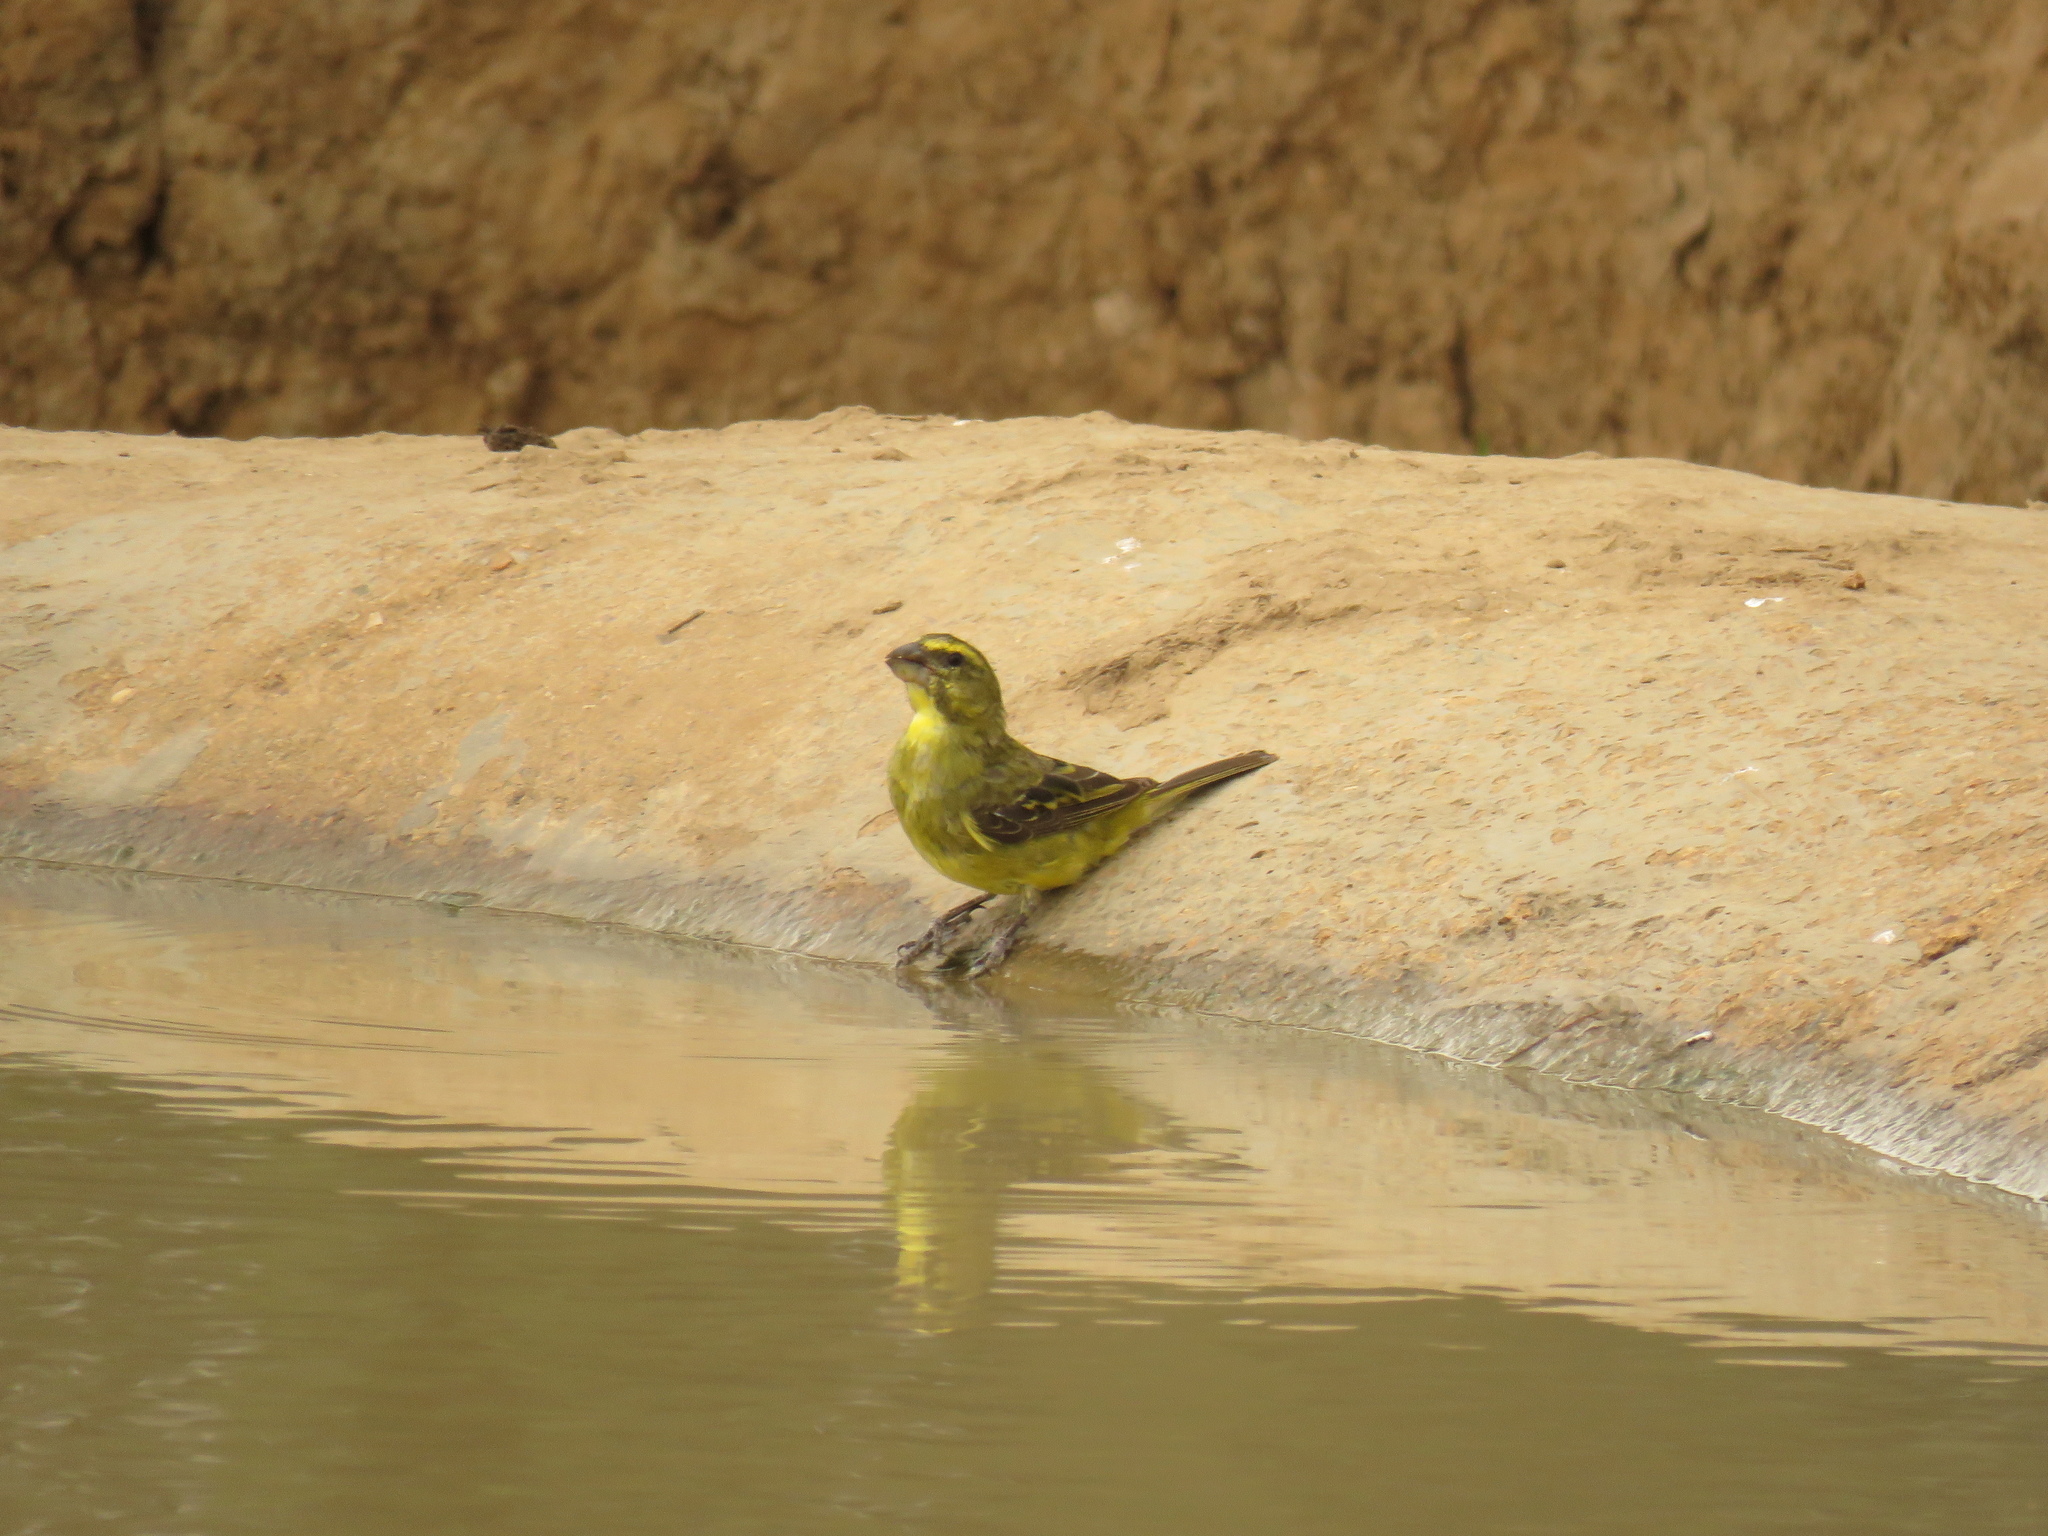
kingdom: Animalia
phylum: Chordata
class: Aves
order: Passeriformes
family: Fringillidae
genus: Crithagra
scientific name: Crithagra sulphurata
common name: Brimstone canary
